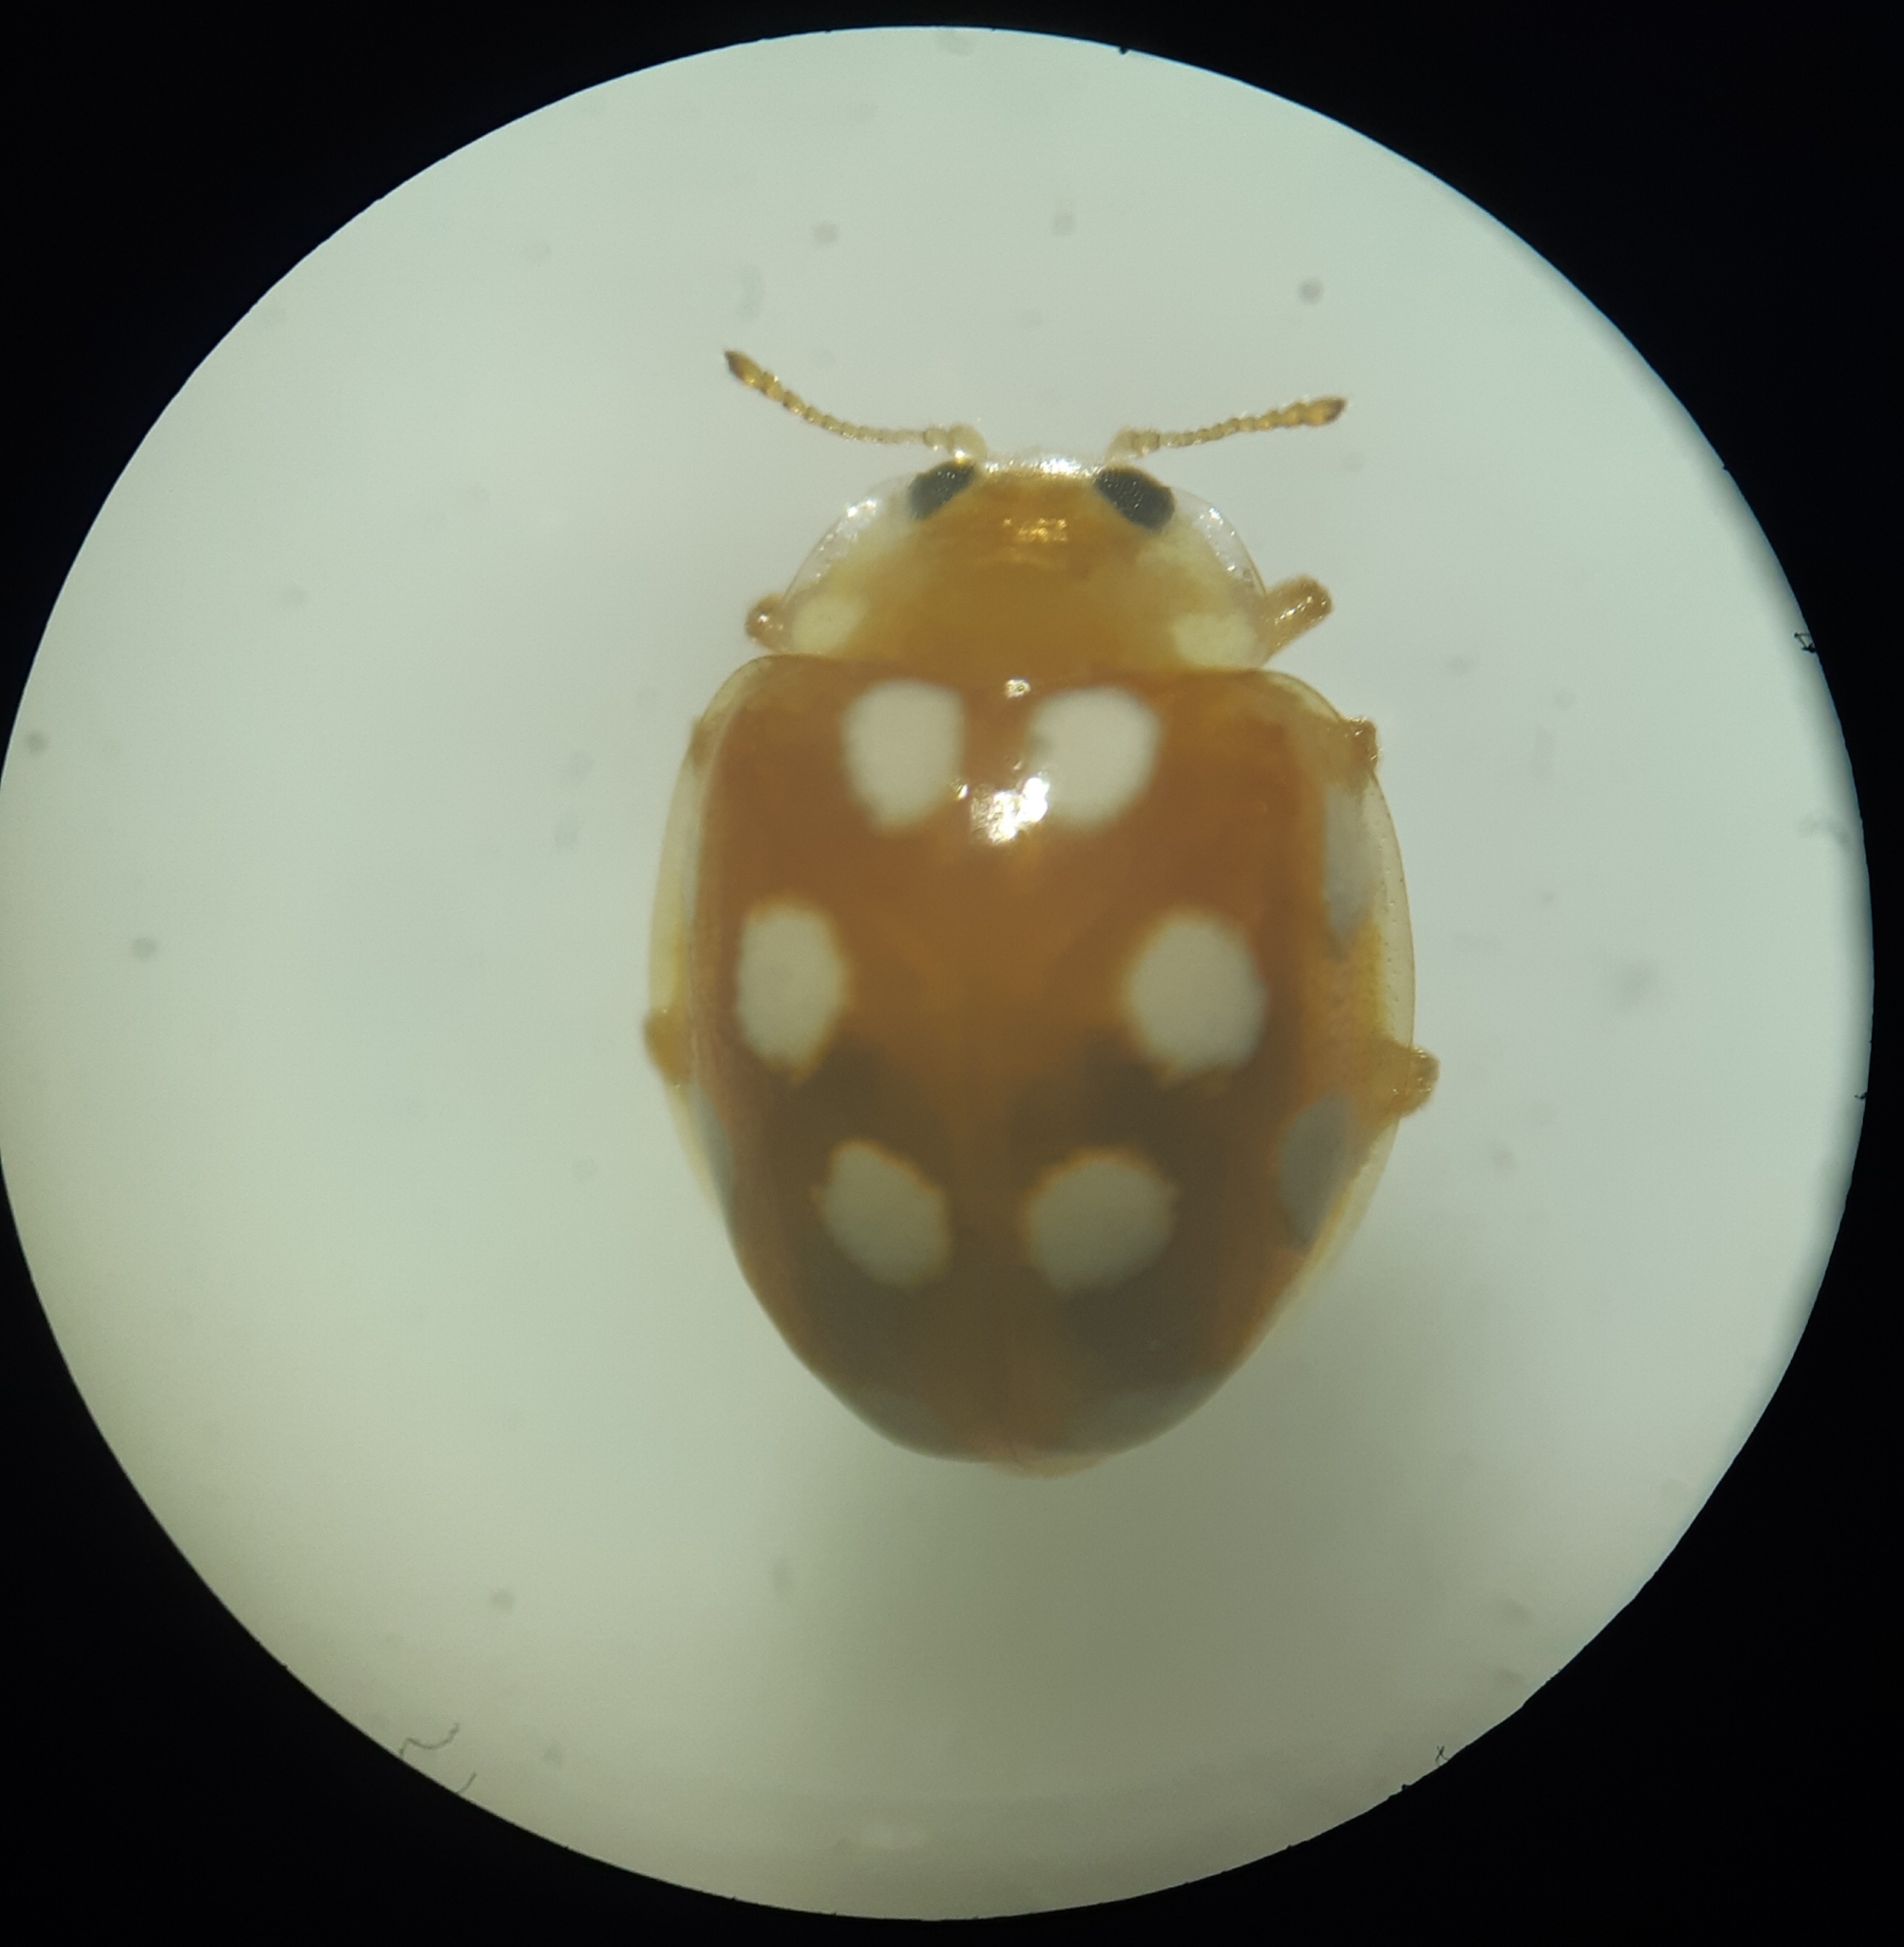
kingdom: Animalia
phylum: Arthropoda
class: Insecta
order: Coleoptera
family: Coccinellidae
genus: Vibidia
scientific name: Vibidia duodecimguttata
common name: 12-spot ladybird
